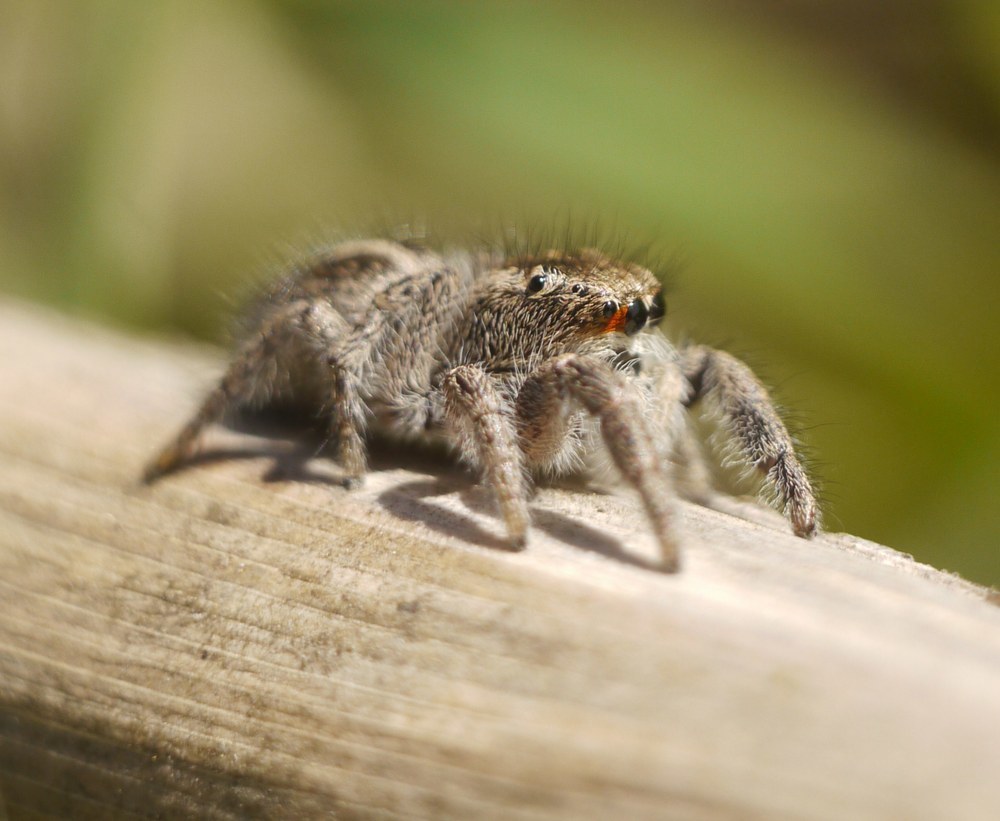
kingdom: Animalia
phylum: Arthropoda
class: Arachnida
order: Araneae
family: Salticidae
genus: Pellenes
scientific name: Pellenes seriatus
